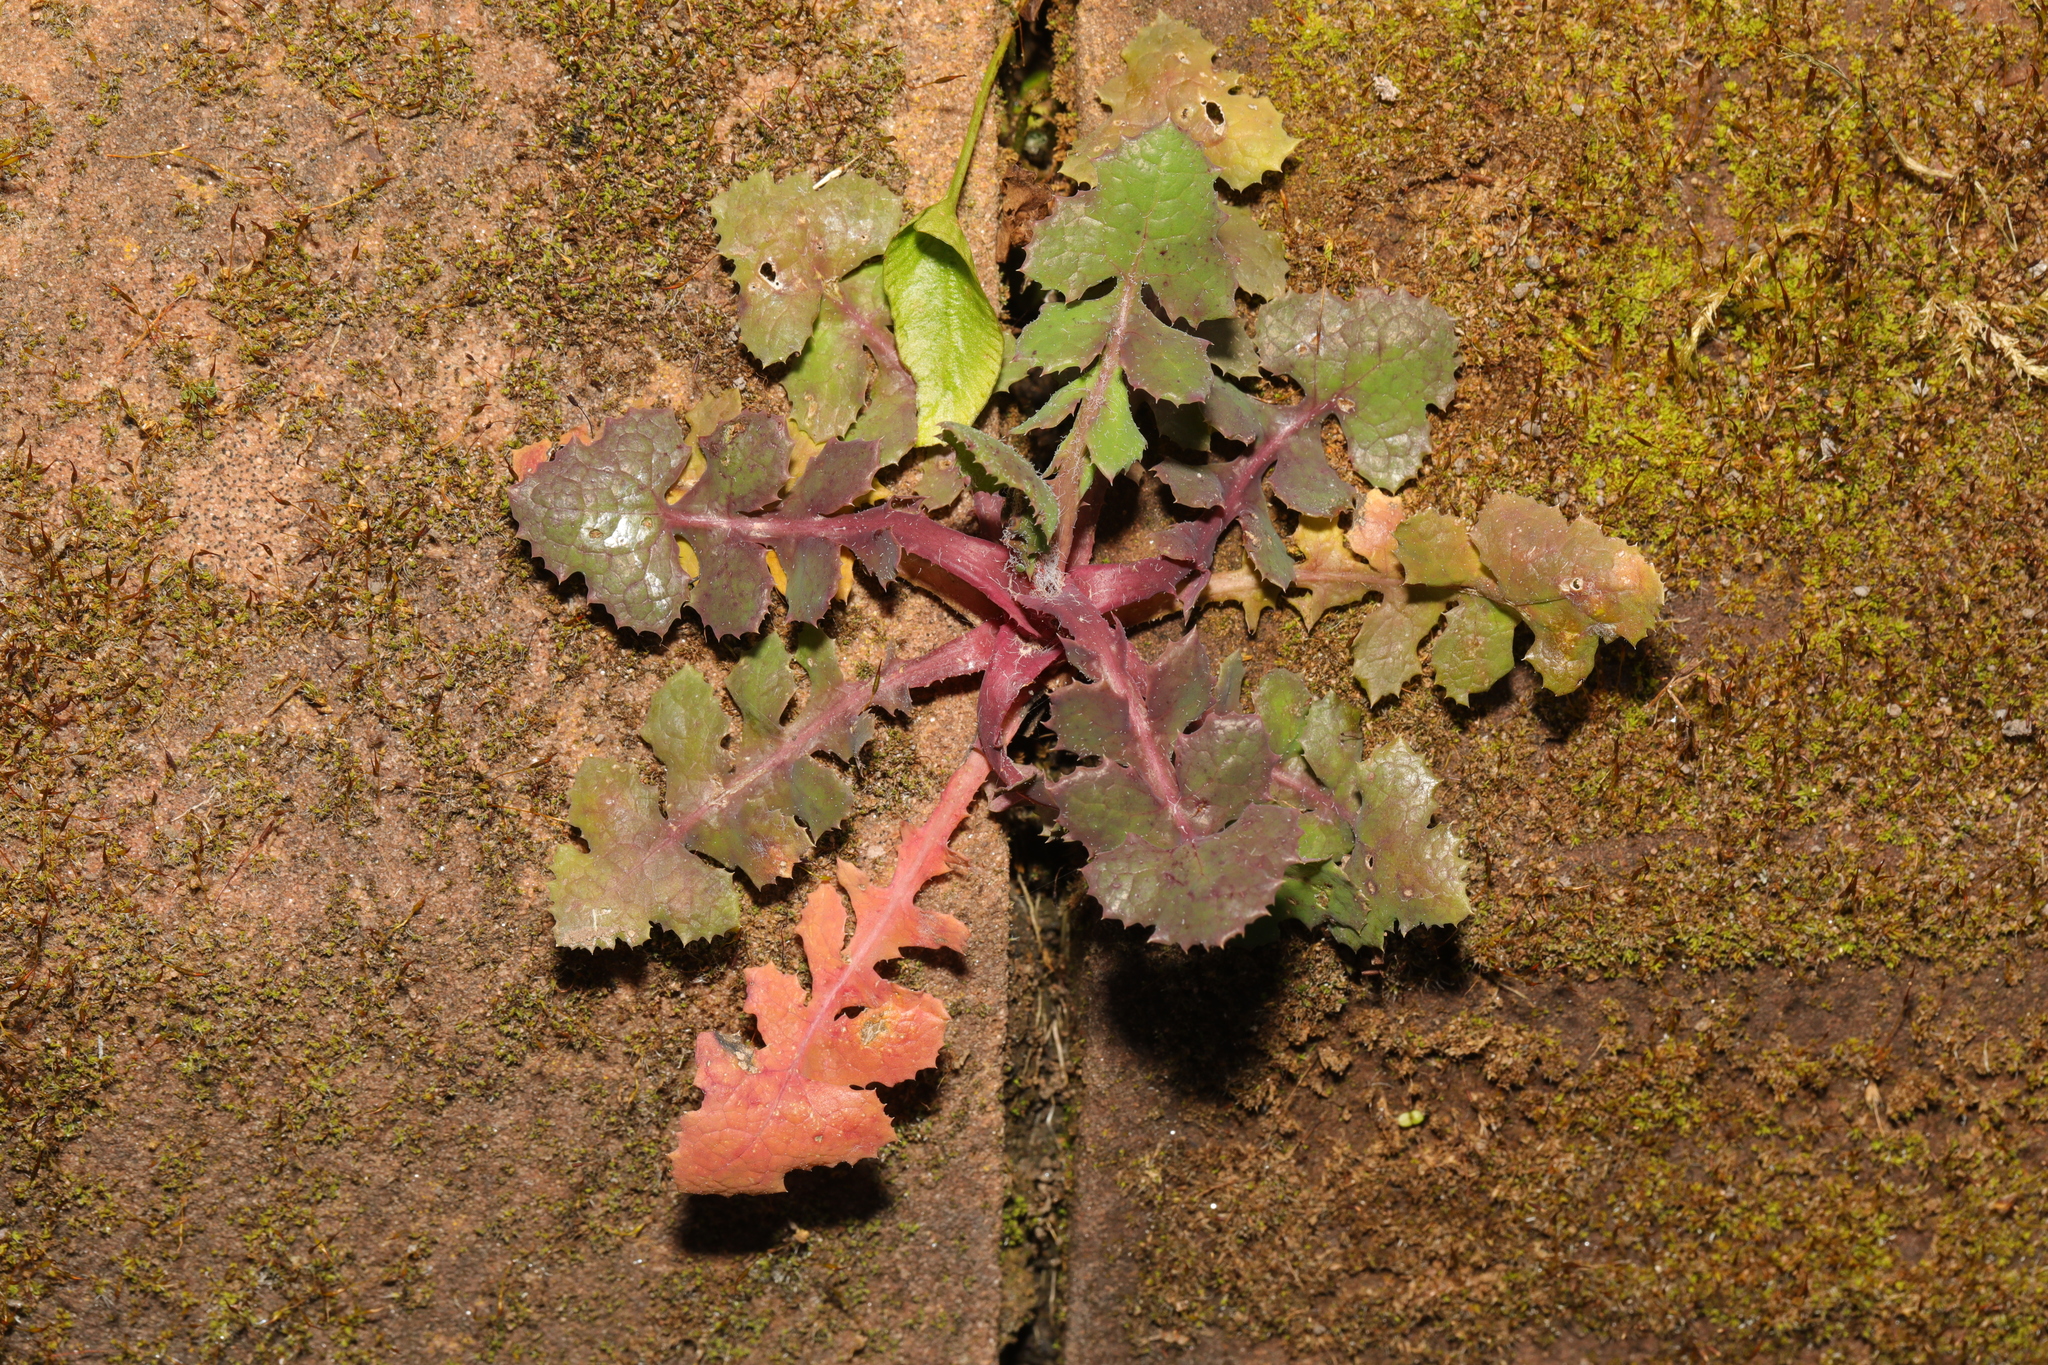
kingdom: Plantae
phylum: Tracheophyta
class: Magnoliopsida
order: Asterales
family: Asteraceae
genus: Sonchus
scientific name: Sonchus oleraceus
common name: Common sowthistle
